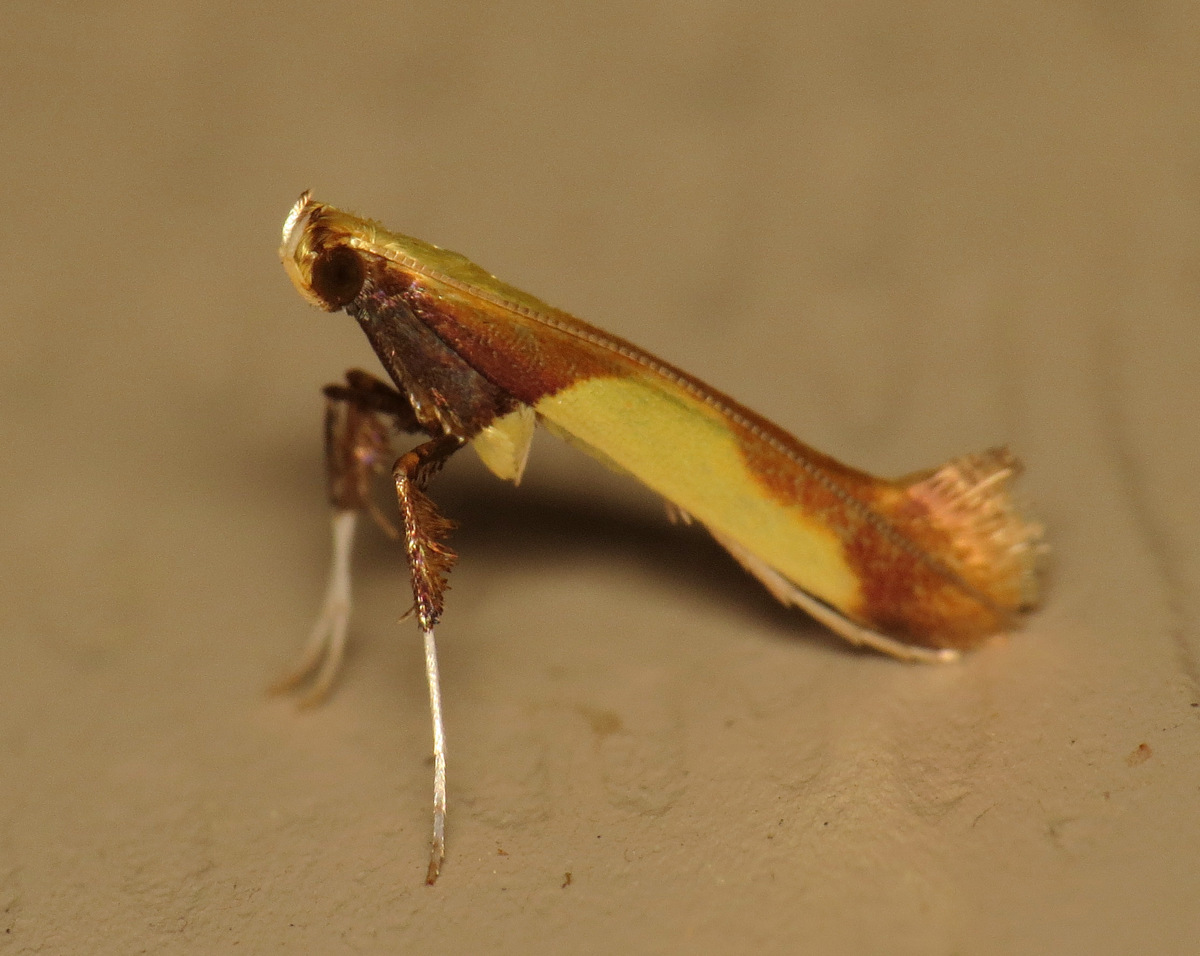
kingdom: Animalia
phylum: Arthropoda
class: Insecta
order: Lepidoptera
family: Gracillariidae
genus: Caloptilia
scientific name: Caloptilia superbifrontella
